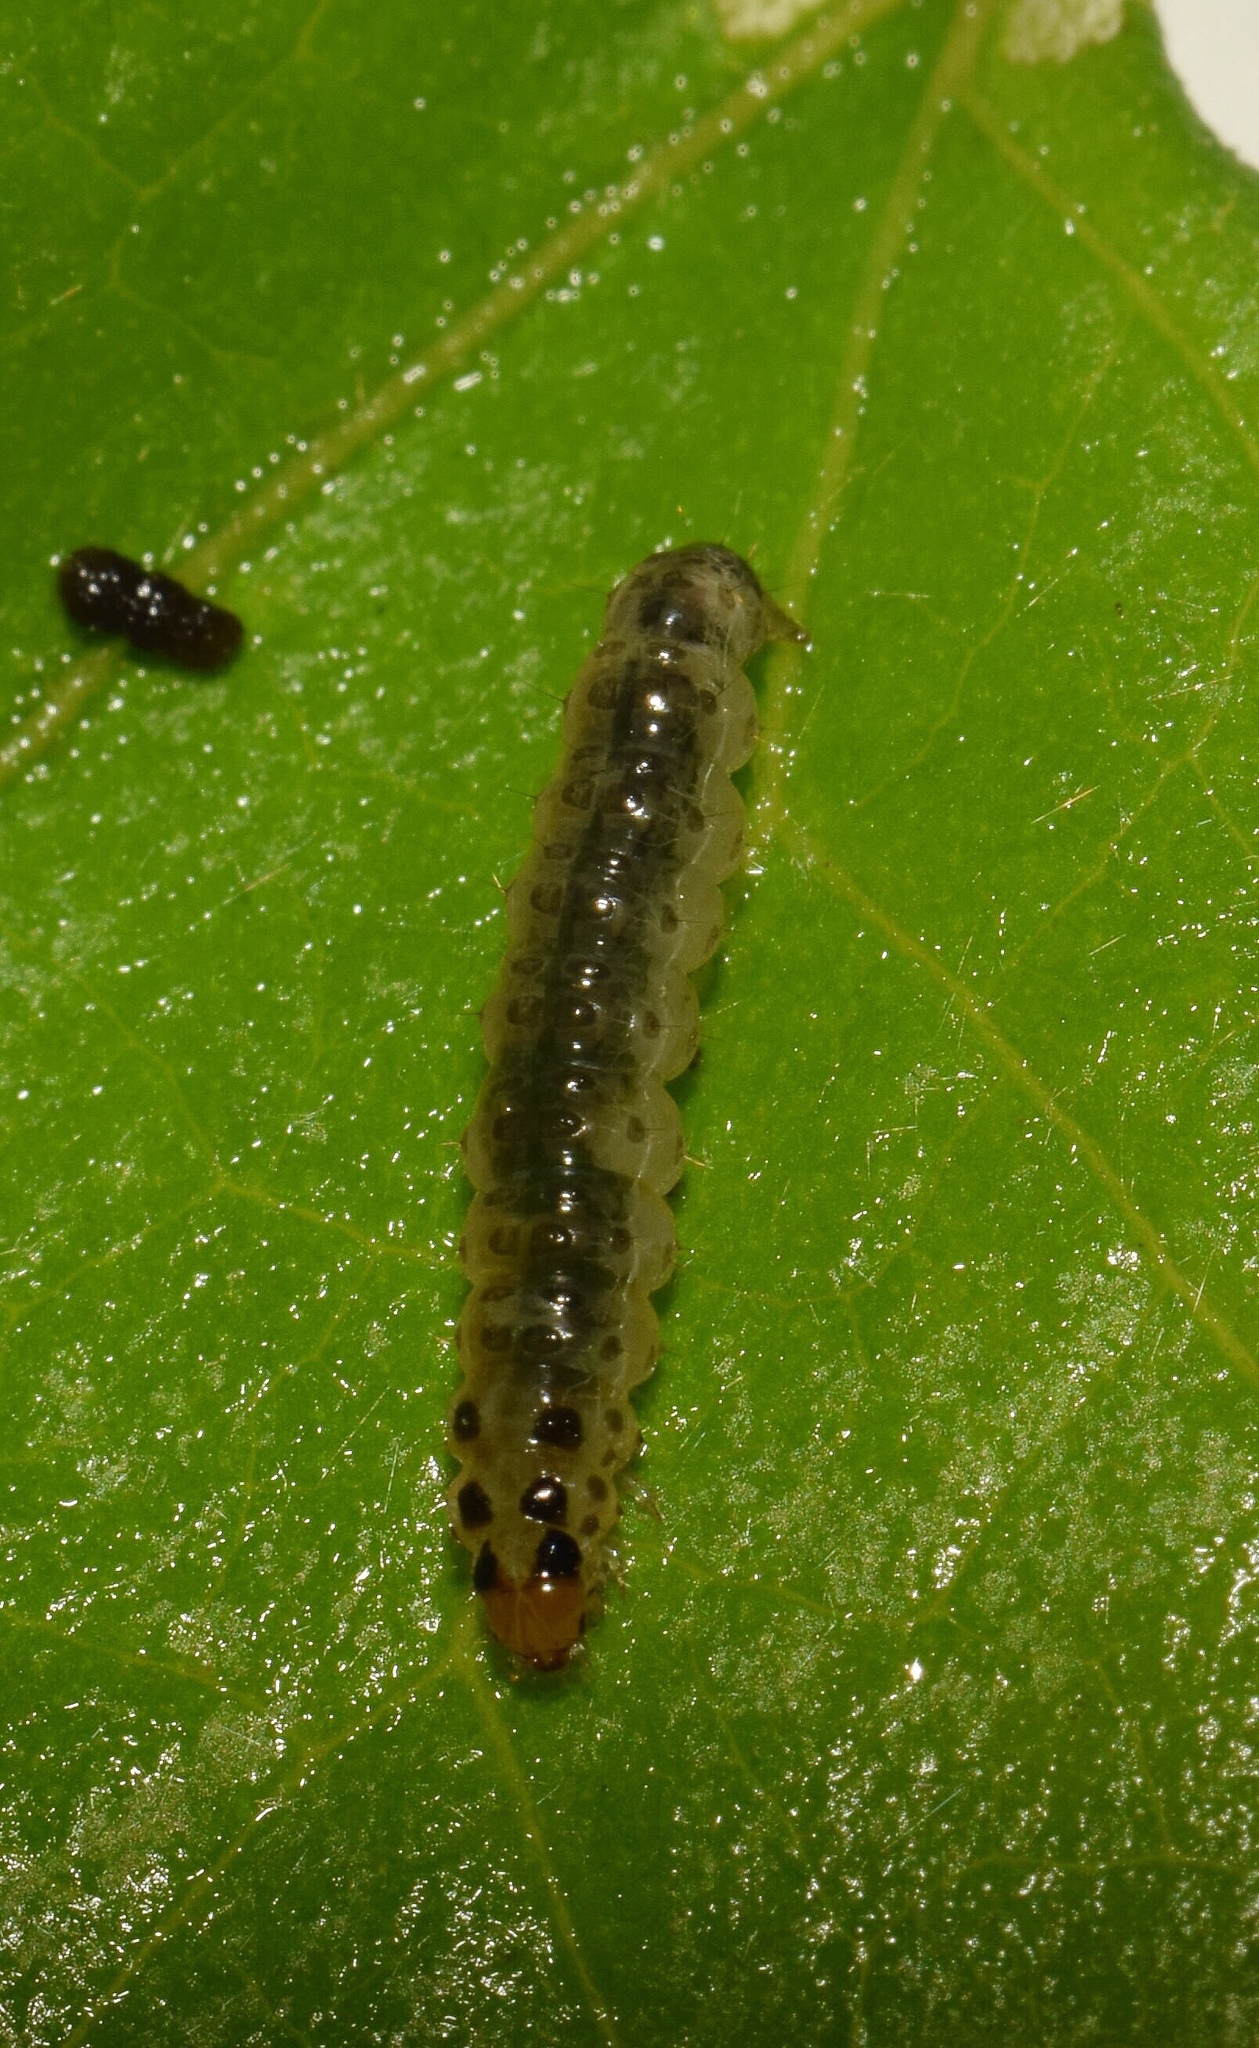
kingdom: Animalia
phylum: Arthropoda
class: Insecta
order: Lepidoptera
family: Crambidae
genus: Eurrhyparodes
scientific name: Eurrhyparodes bracteolalis
